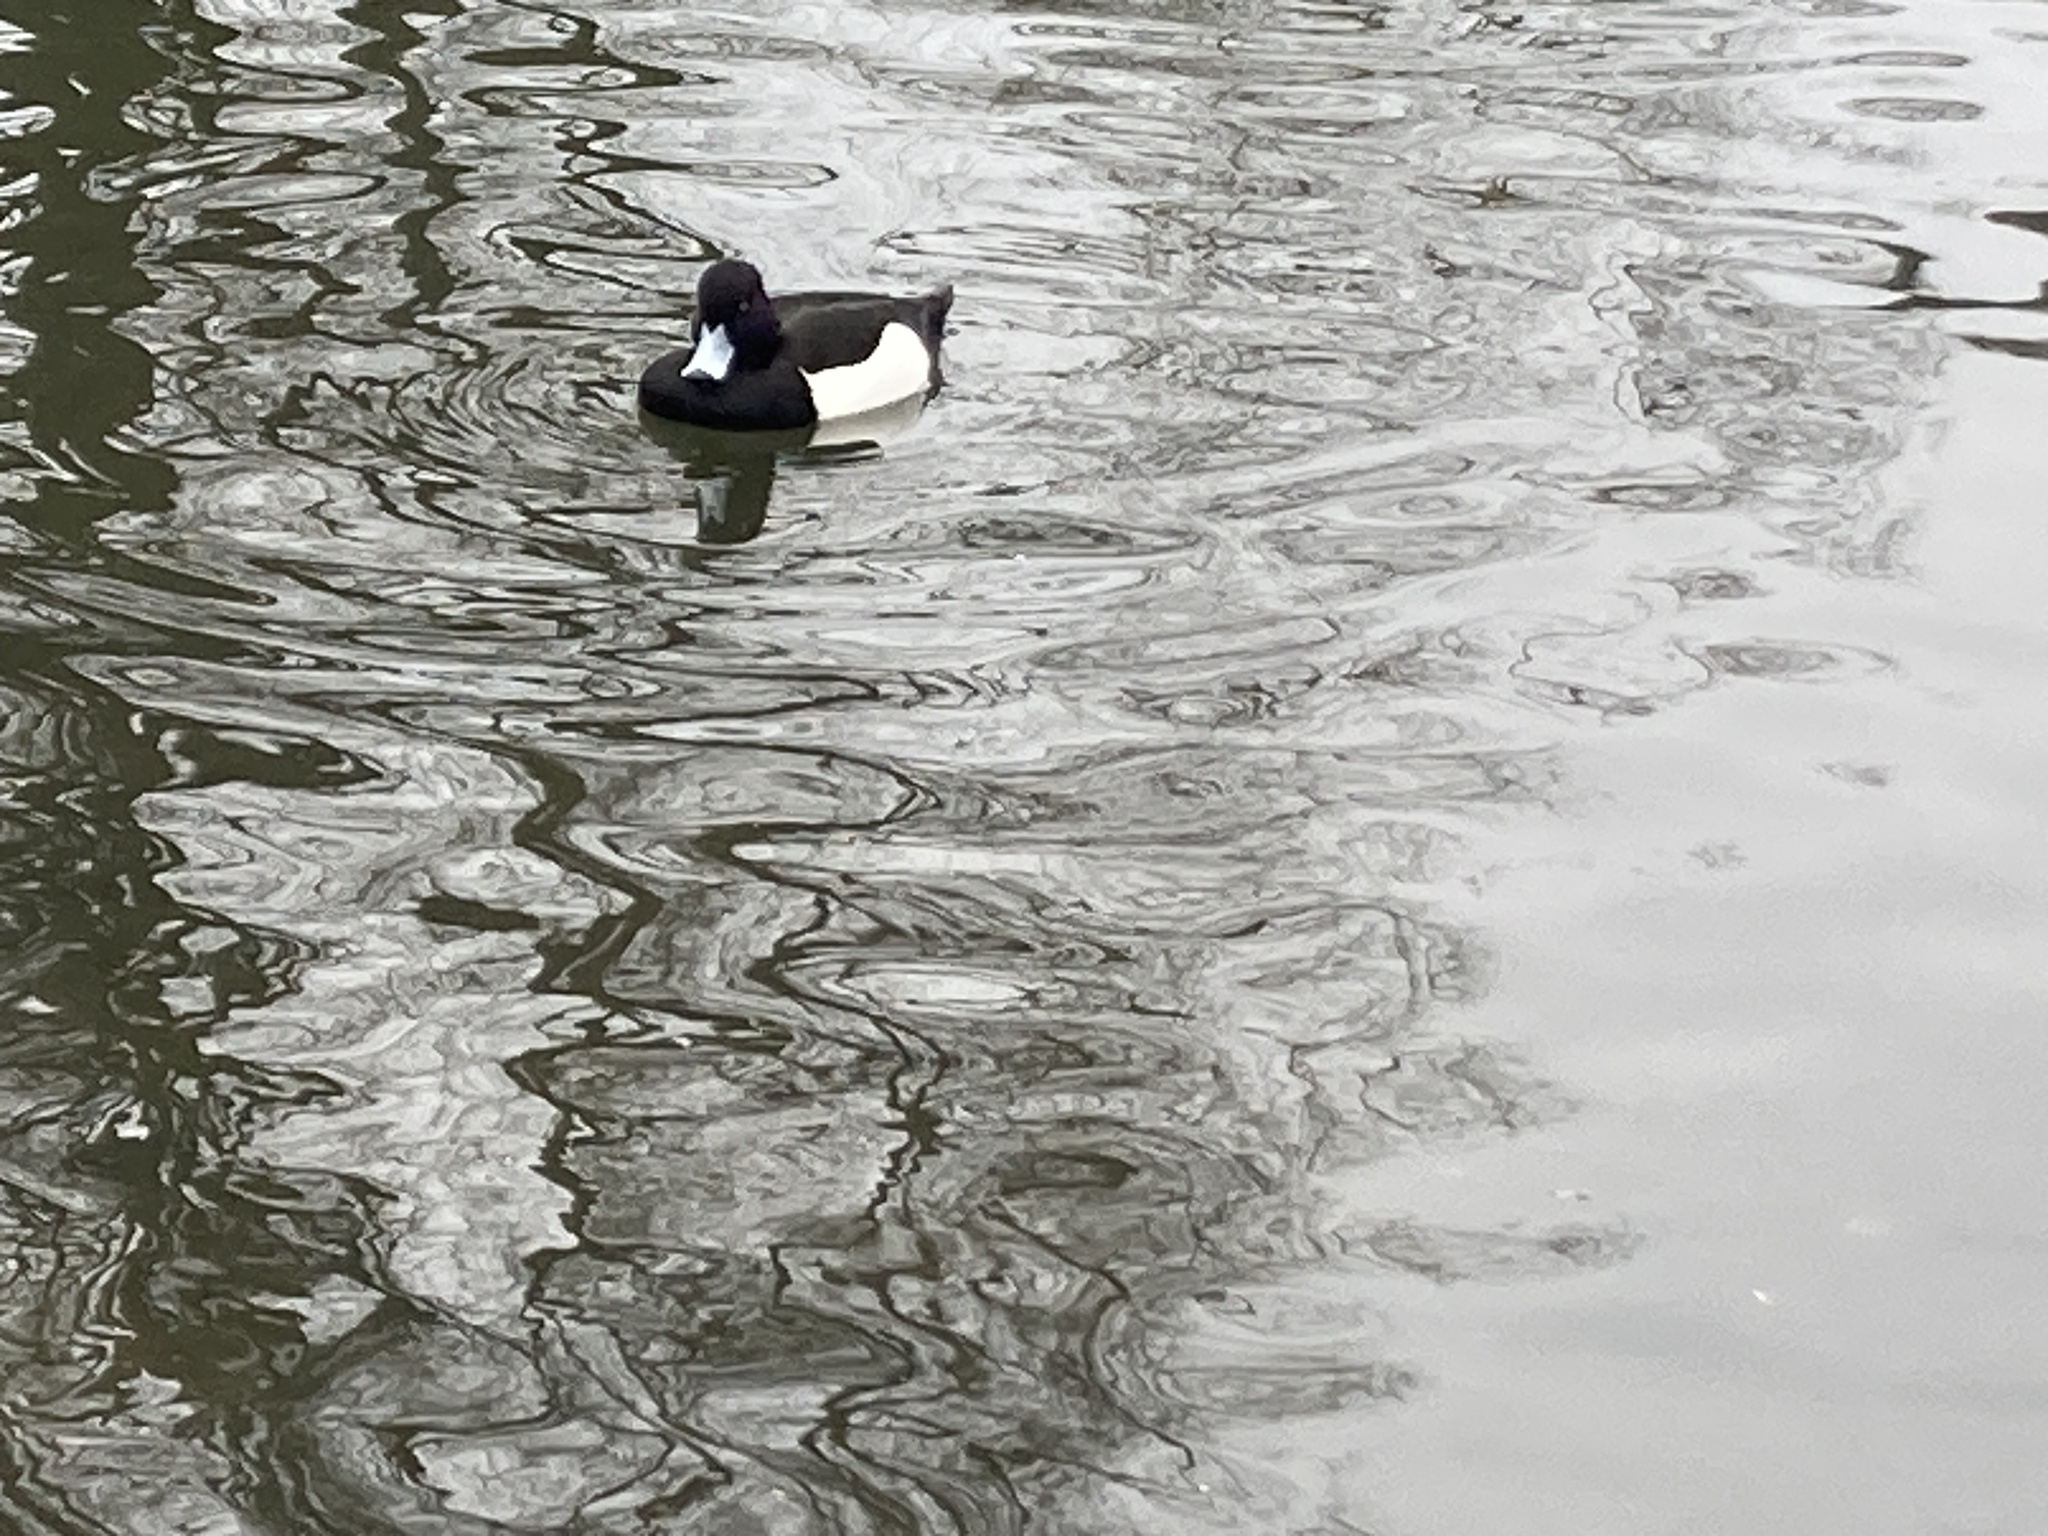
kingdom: Animalia
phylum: Chordata
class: Aves
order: Anseriformes
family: Anatidae
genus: Aythya
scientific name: Aythya fuligula
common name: Tufted duck
